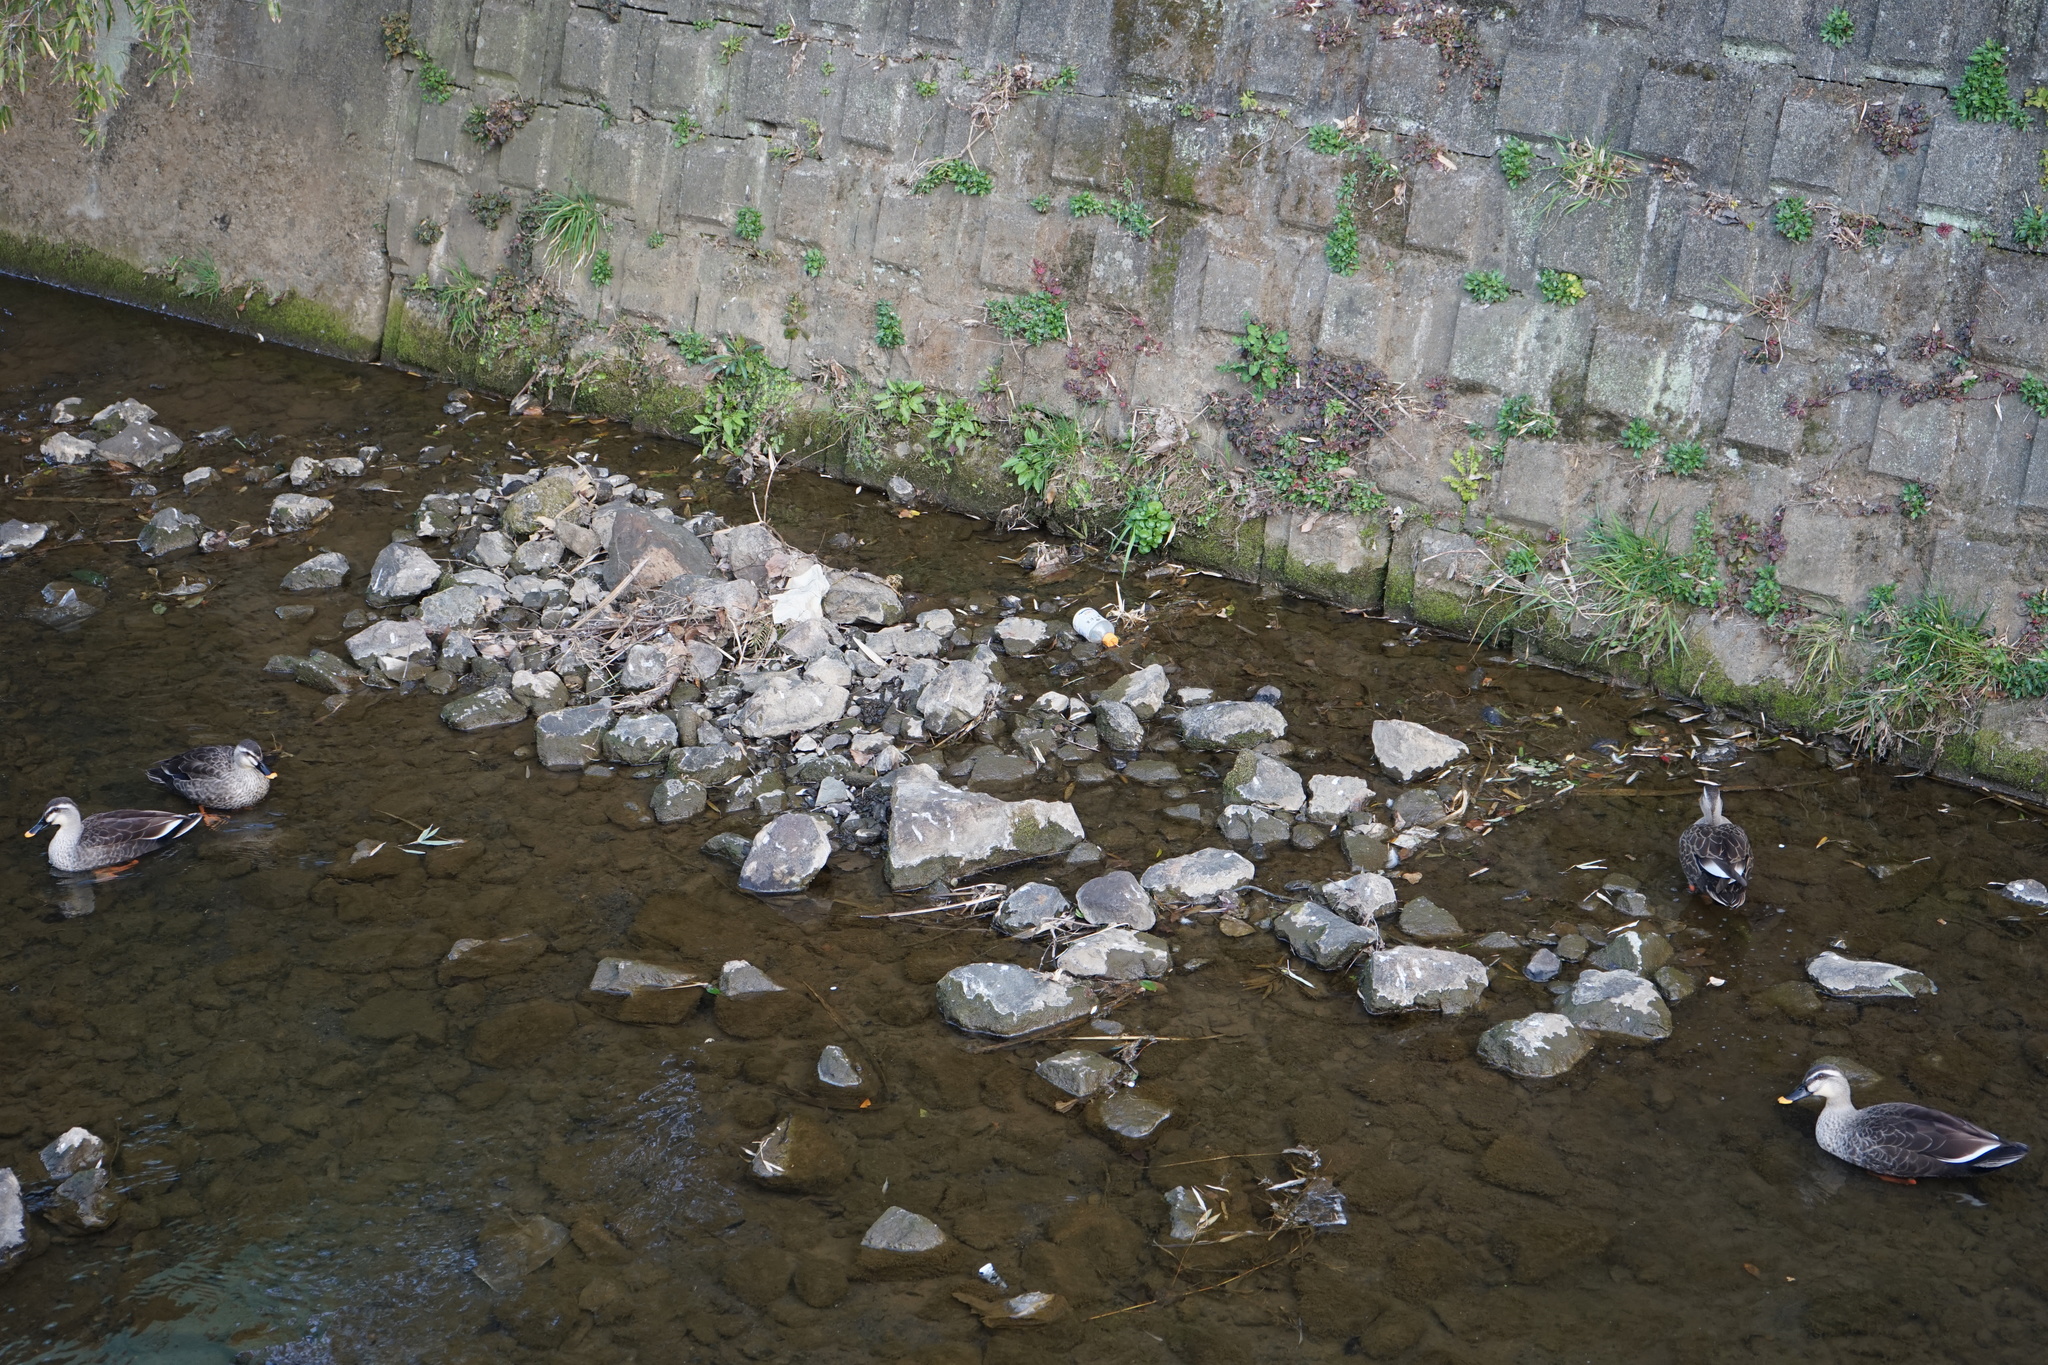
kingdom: Animalia
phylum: Chordata
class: Aves
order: Anseriformes
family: Anatidae
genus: Anas
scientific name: Anas zonorhyncha
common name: Eastern spot-billed duck
